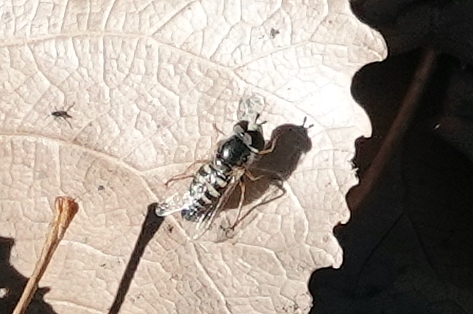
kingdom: Animalia
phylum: Arthropoda
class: Insecta
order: Diptera
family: Syrphidae
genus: Eupeodes
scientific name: Eupeodes volucris
